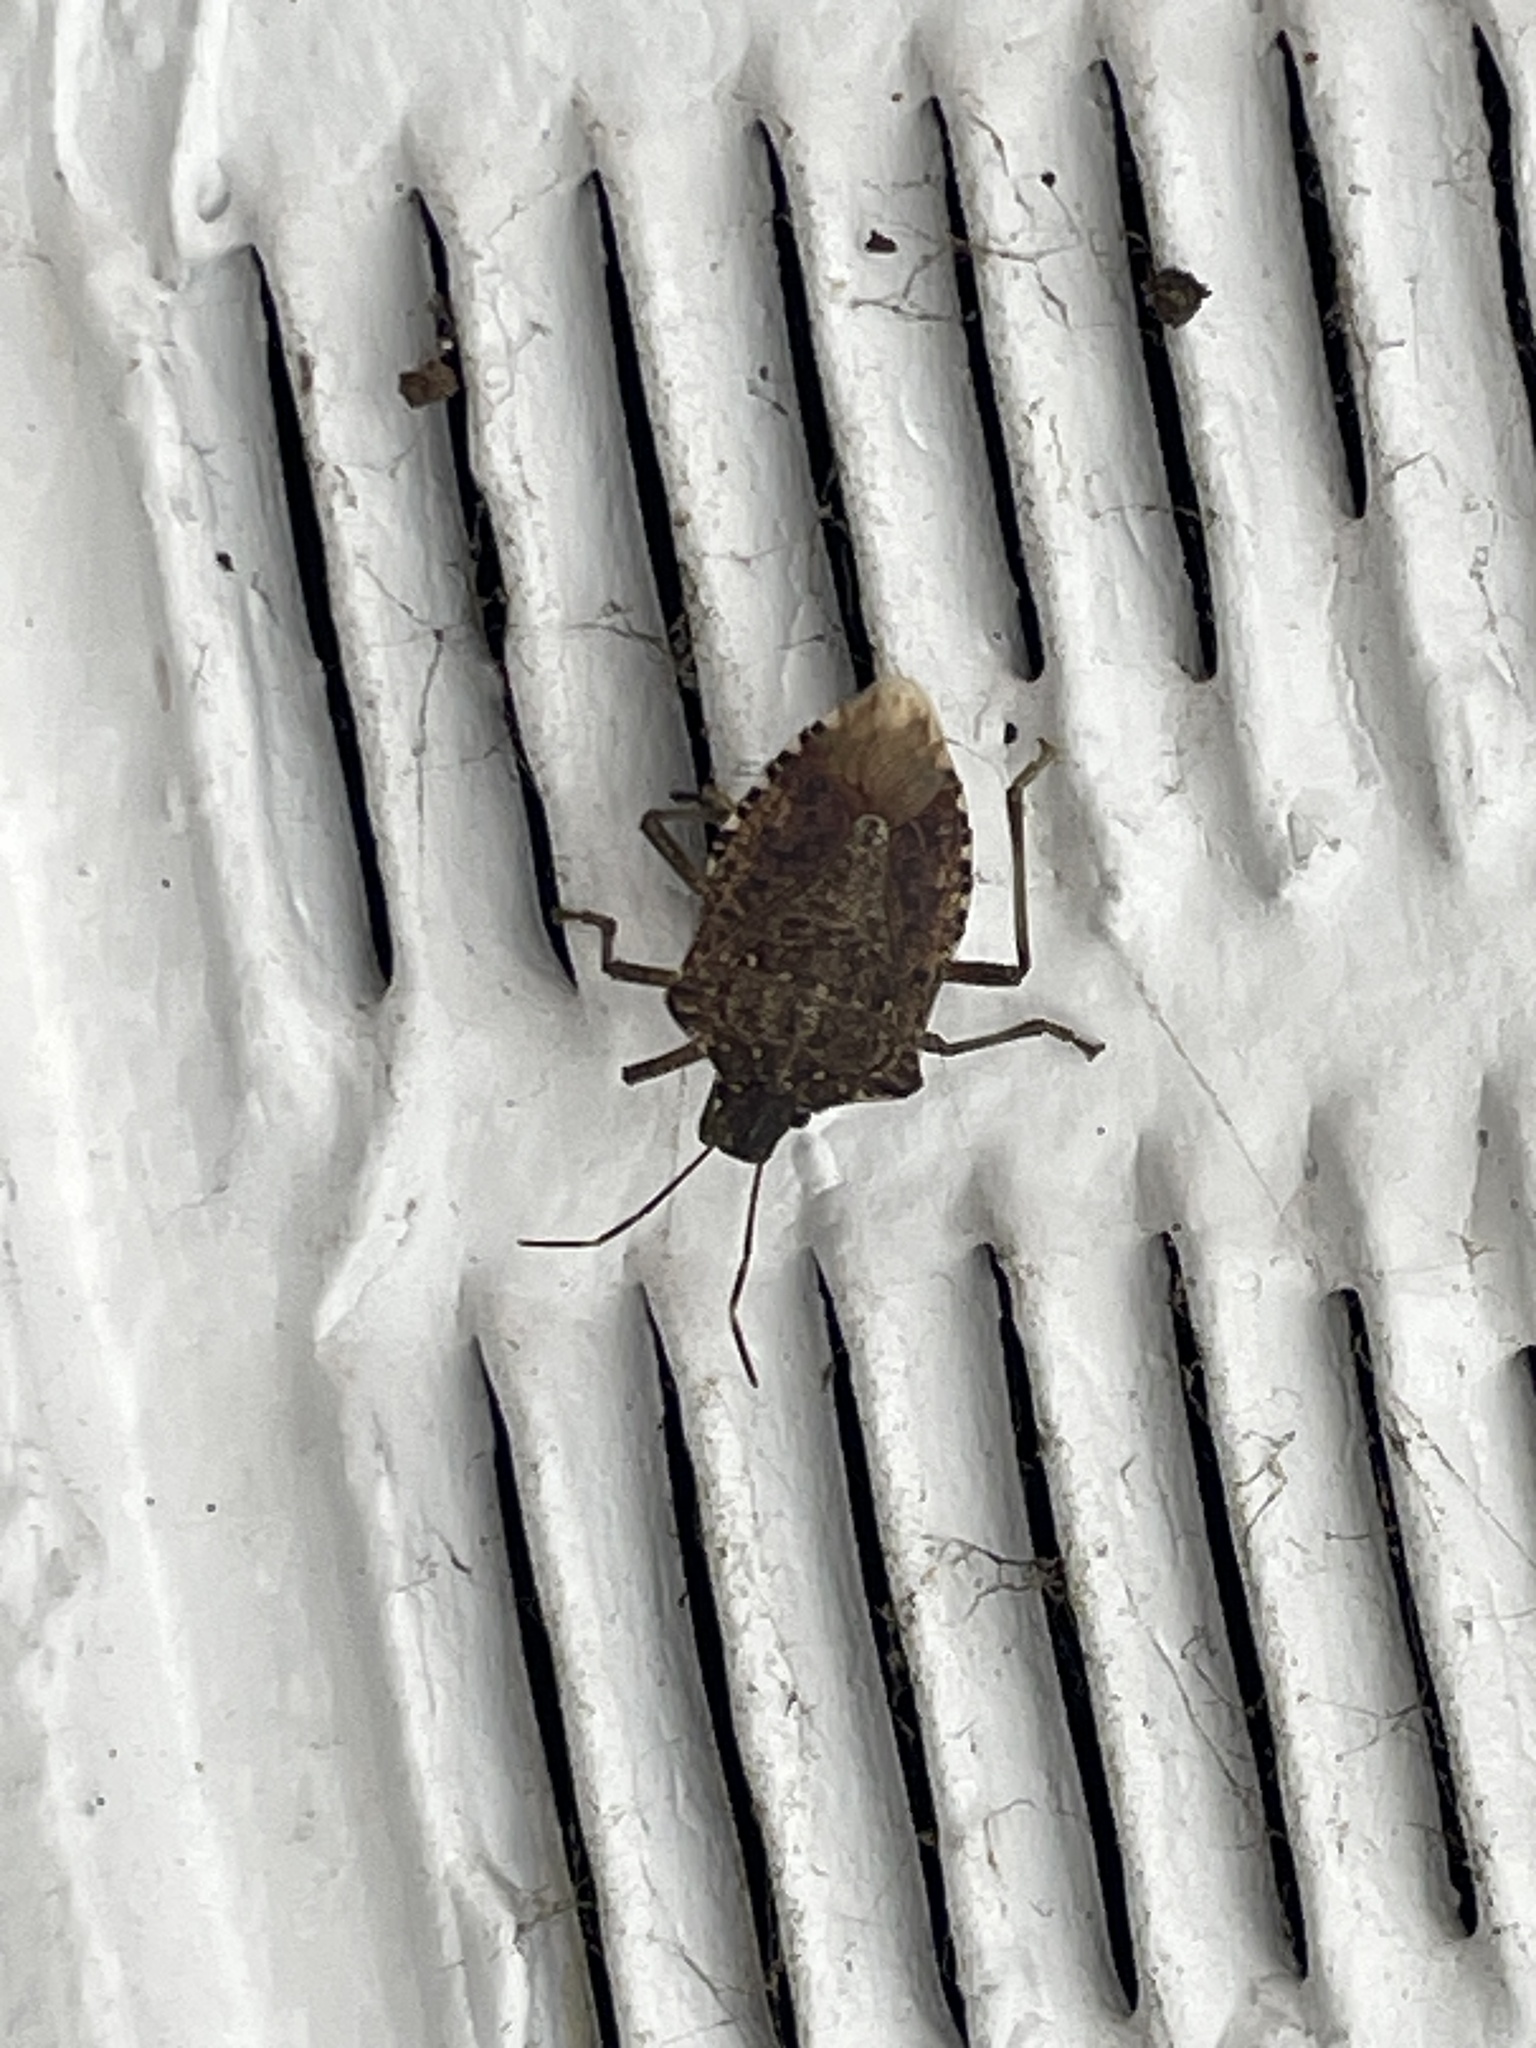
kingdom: Animalia
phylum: Arthropoda
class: Insecta
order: Hemiptera
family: Pentatomidae
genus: Halyomorpha
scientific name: Halyomorpha halys
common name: Brown marmorated stink bug
